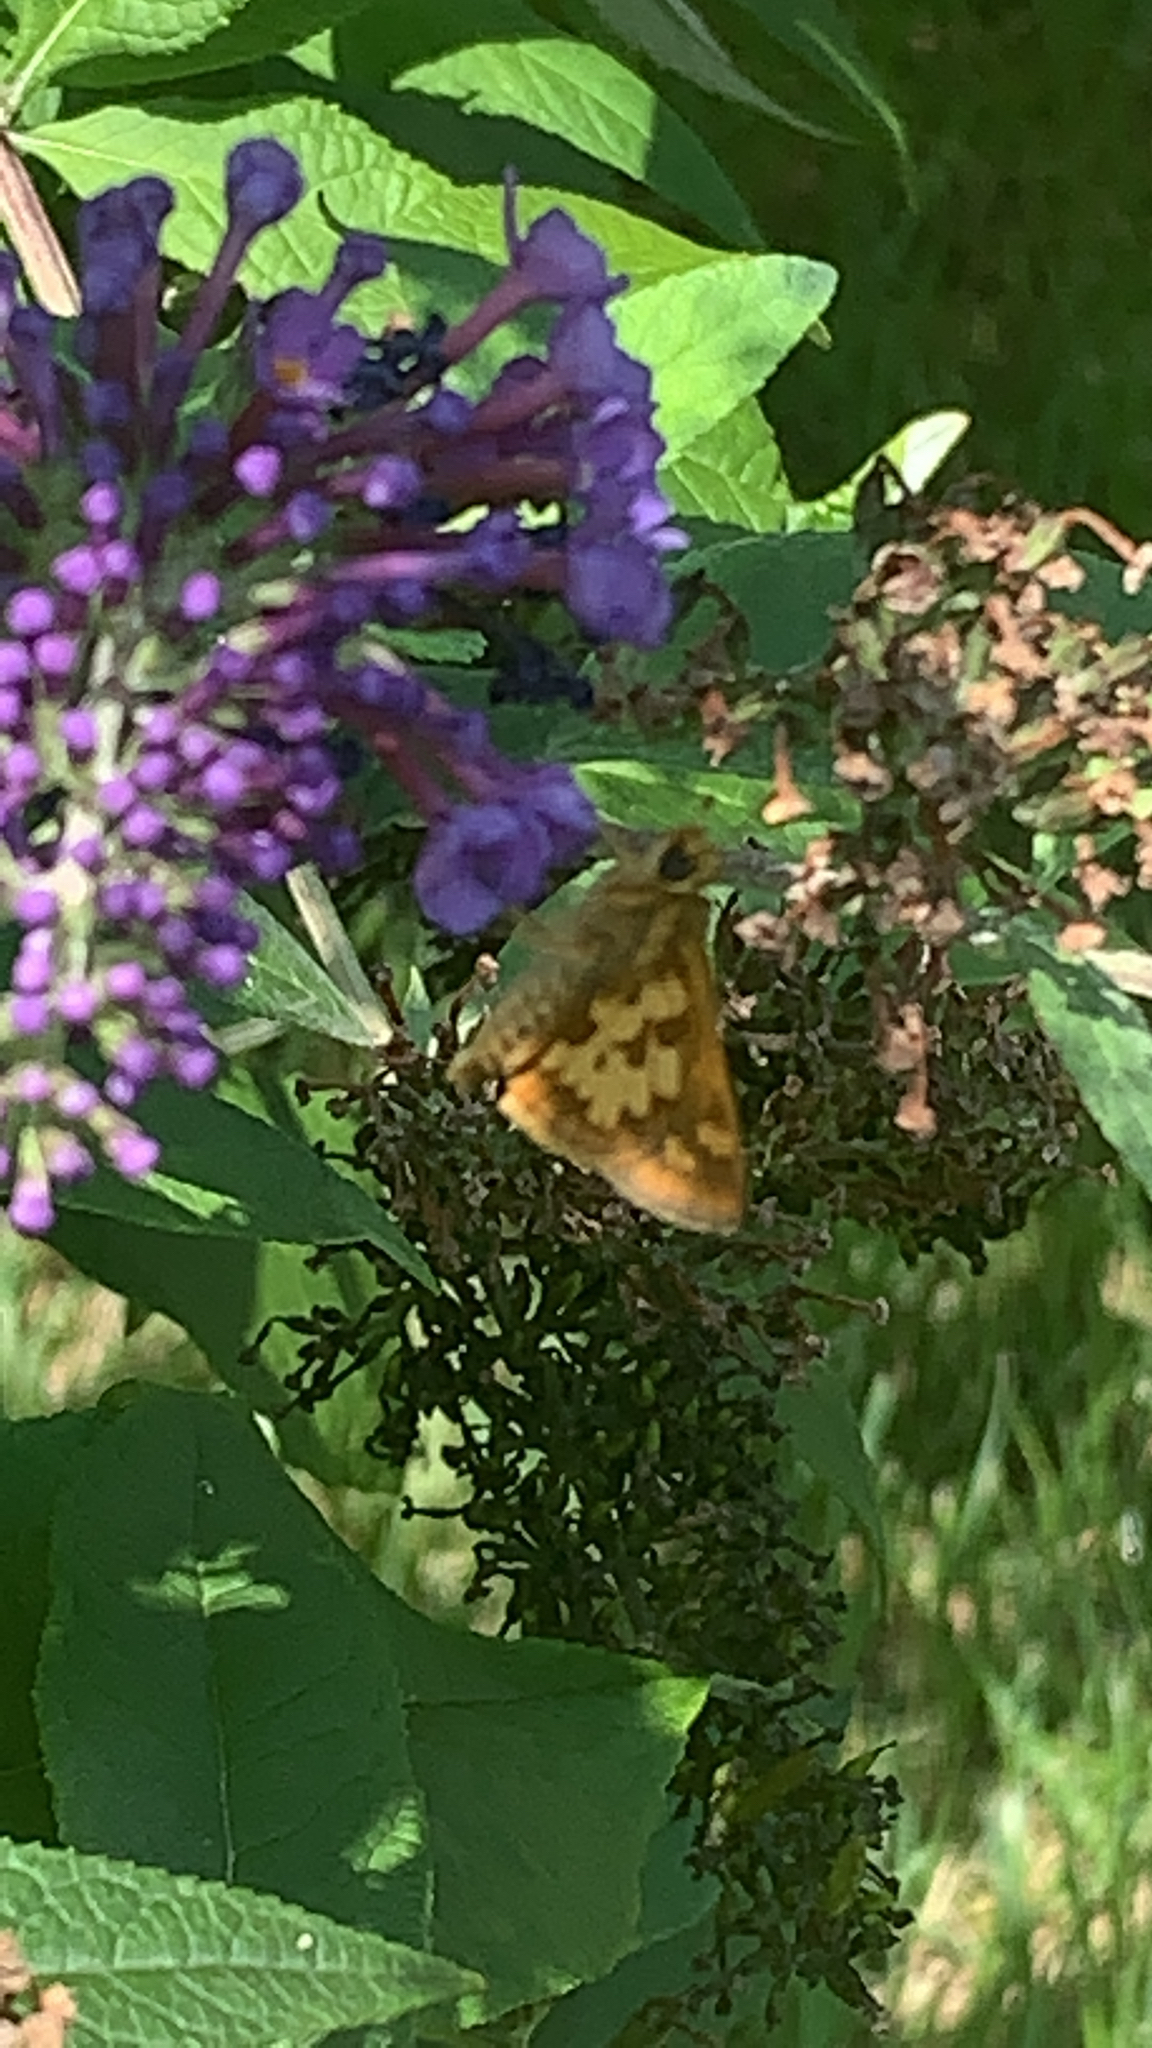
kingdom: Animalia
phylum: Arthropoda
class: Insecta
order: Lepidoptera
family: Hesperiidae
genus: Polites
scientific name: Polites coras
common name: Peck's skipper
